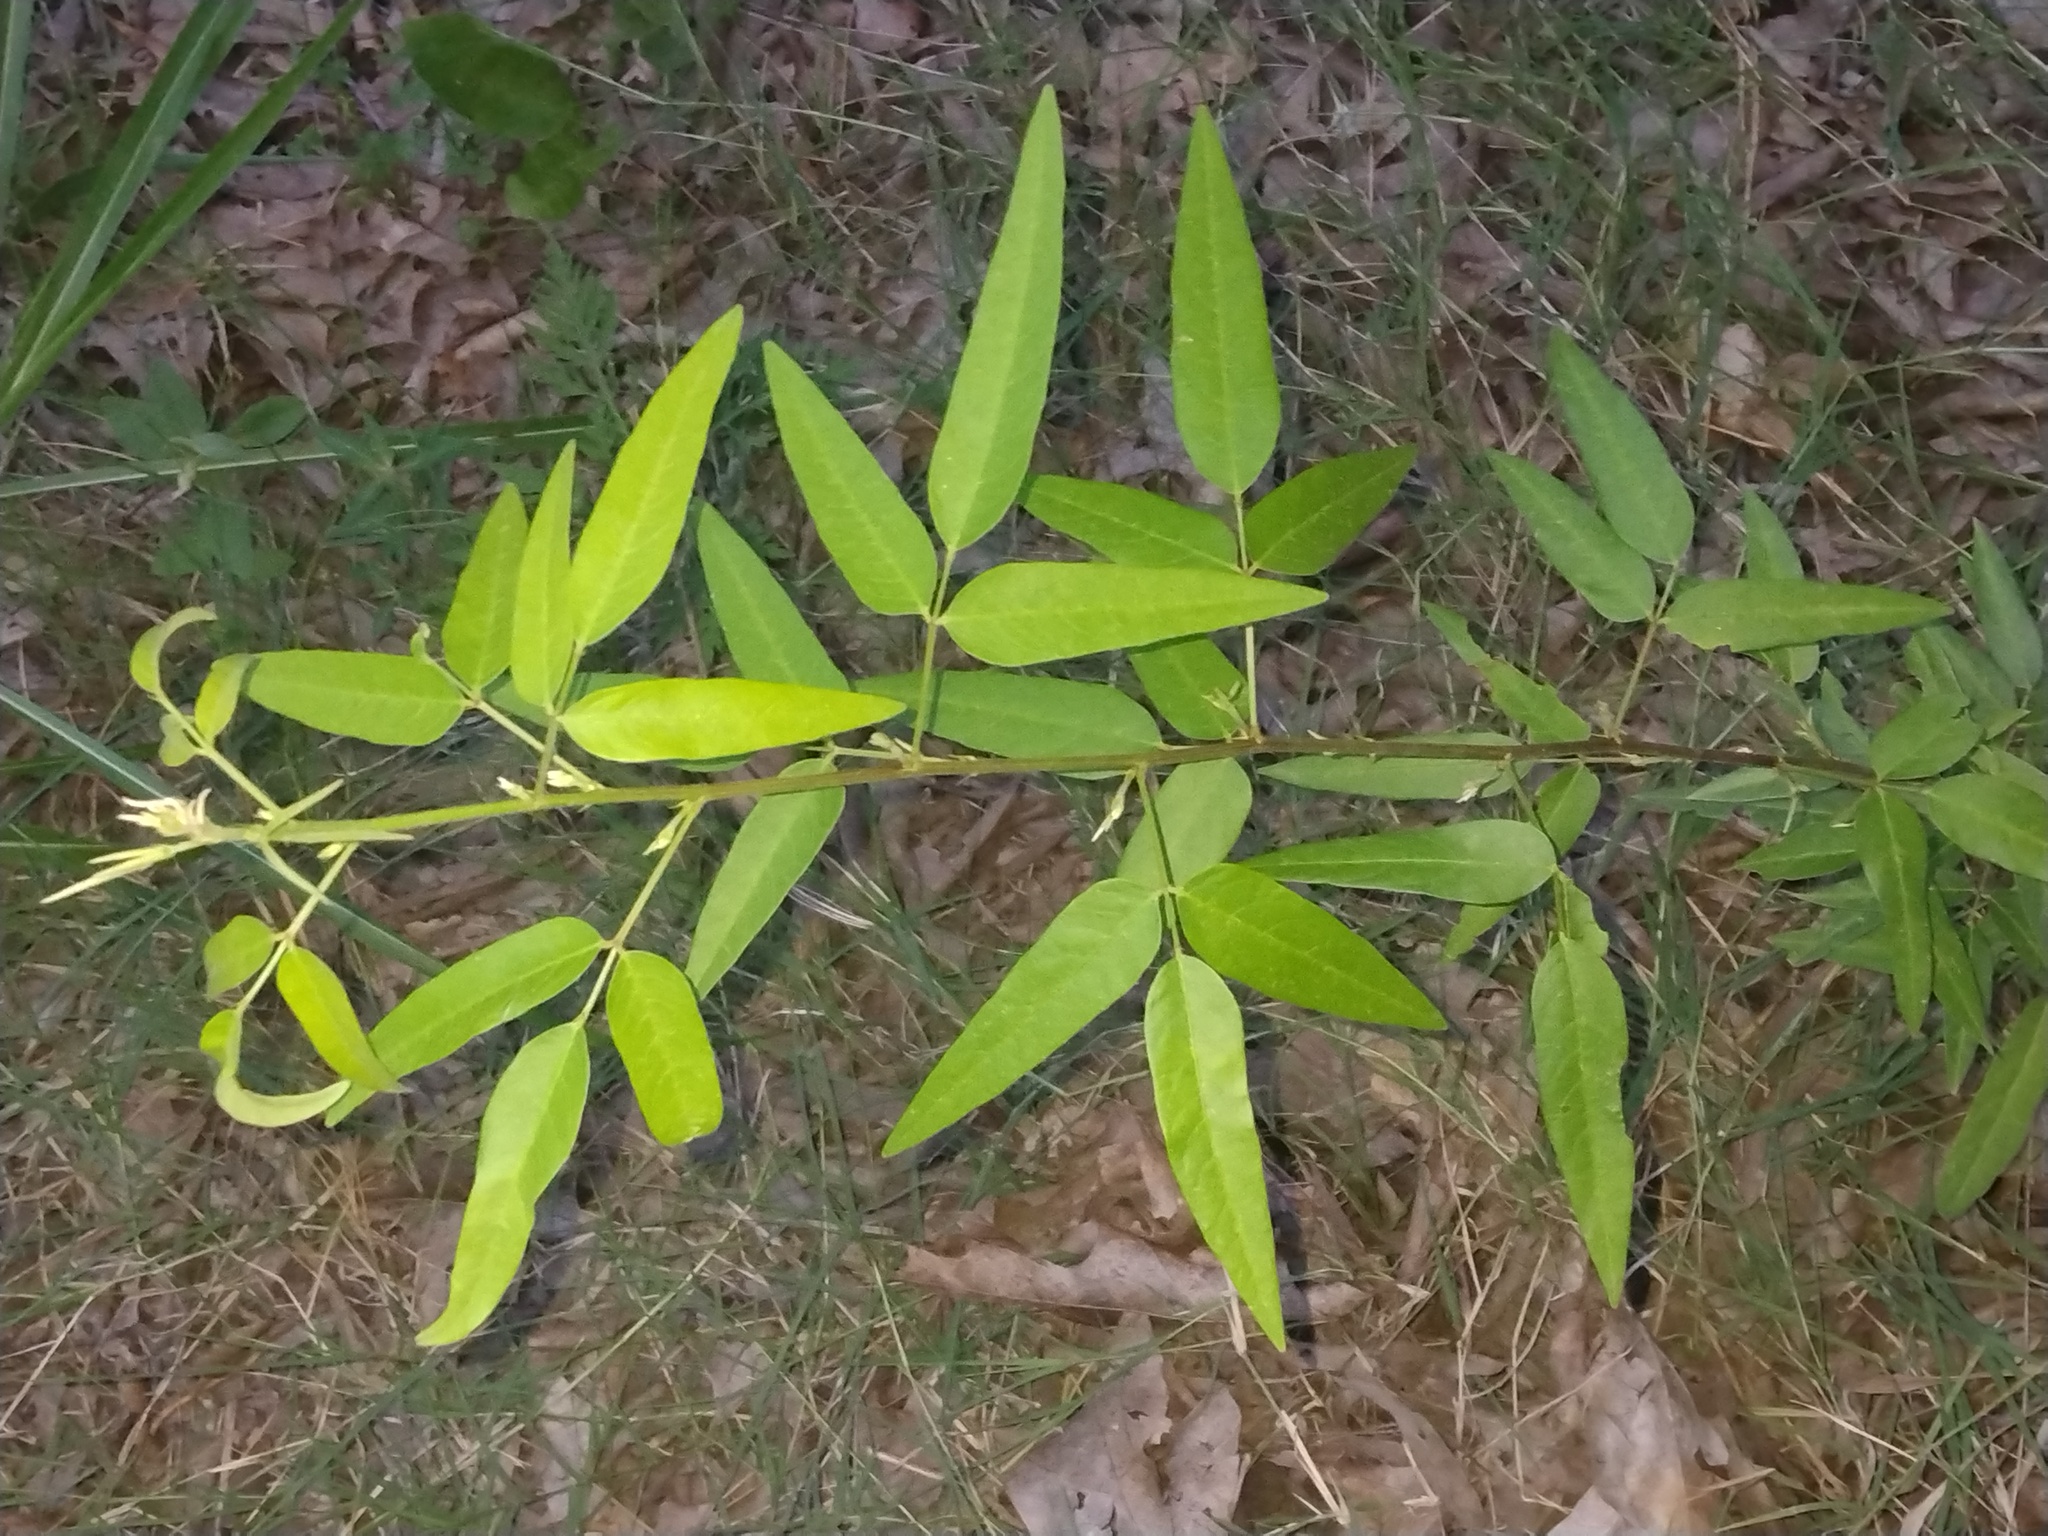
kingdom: Plantae
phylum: Tracheophyta
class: Magnoliopsida
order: Fabales
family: Fabaceae
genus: Desmodium
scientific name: Desmodium paniculatum
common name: Panicled tick-clover
